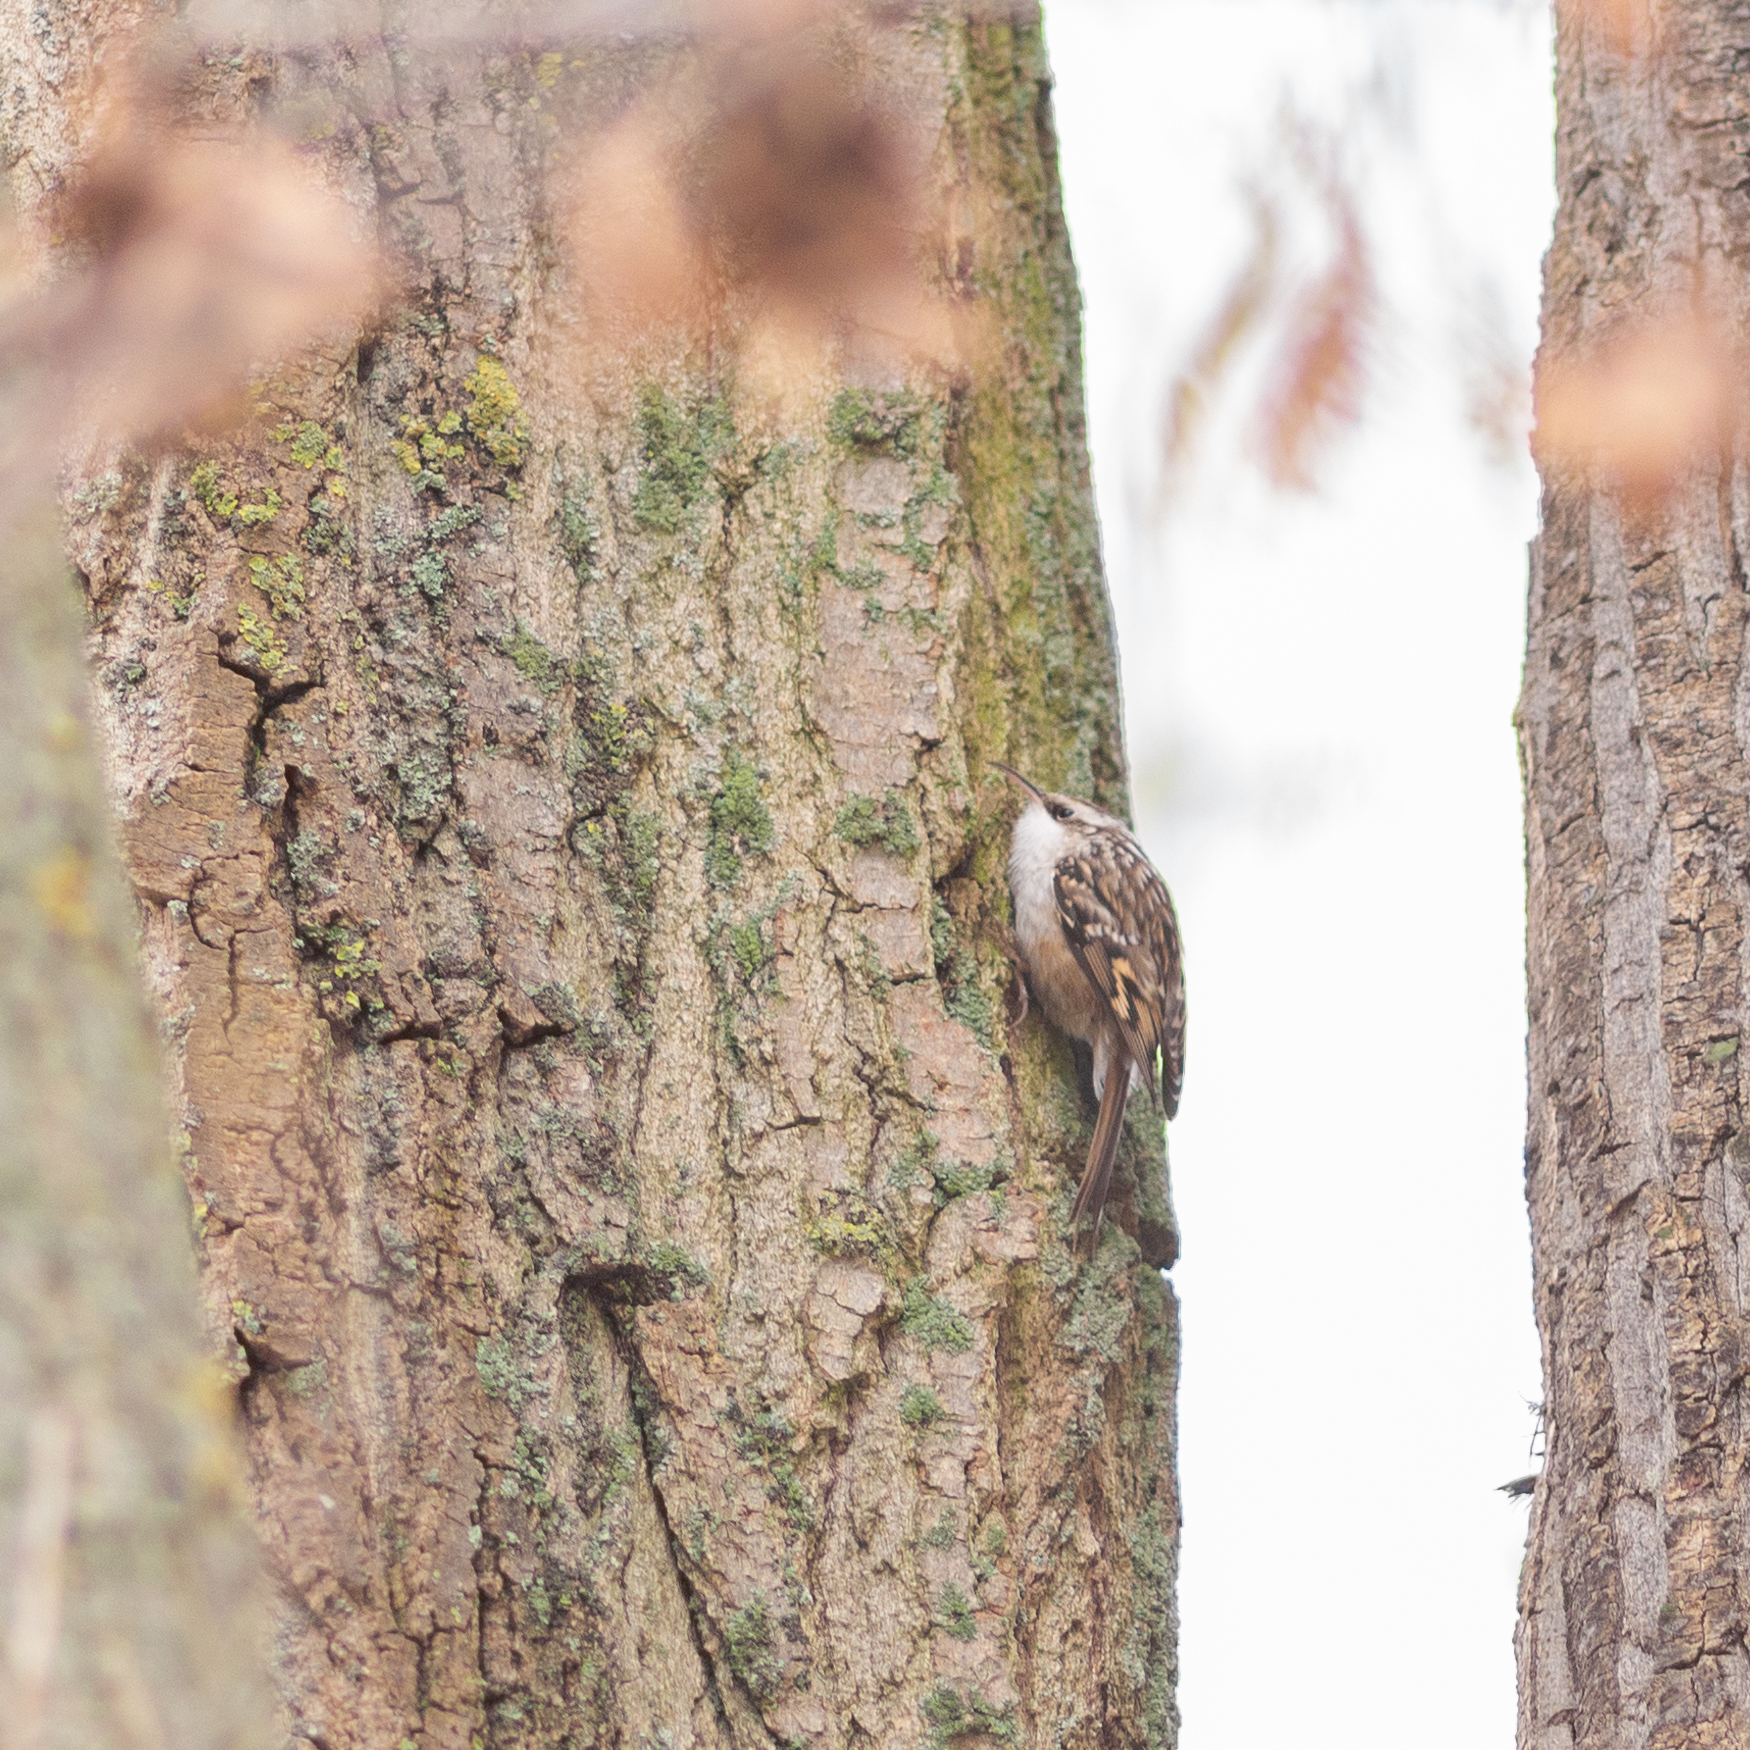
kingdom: Animalia
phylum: Chordata
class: Aves
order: Passeriformes
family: Certhiidae
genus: Certhia
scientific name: Certhia brachydactyla
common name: Short-toed treecreeper
